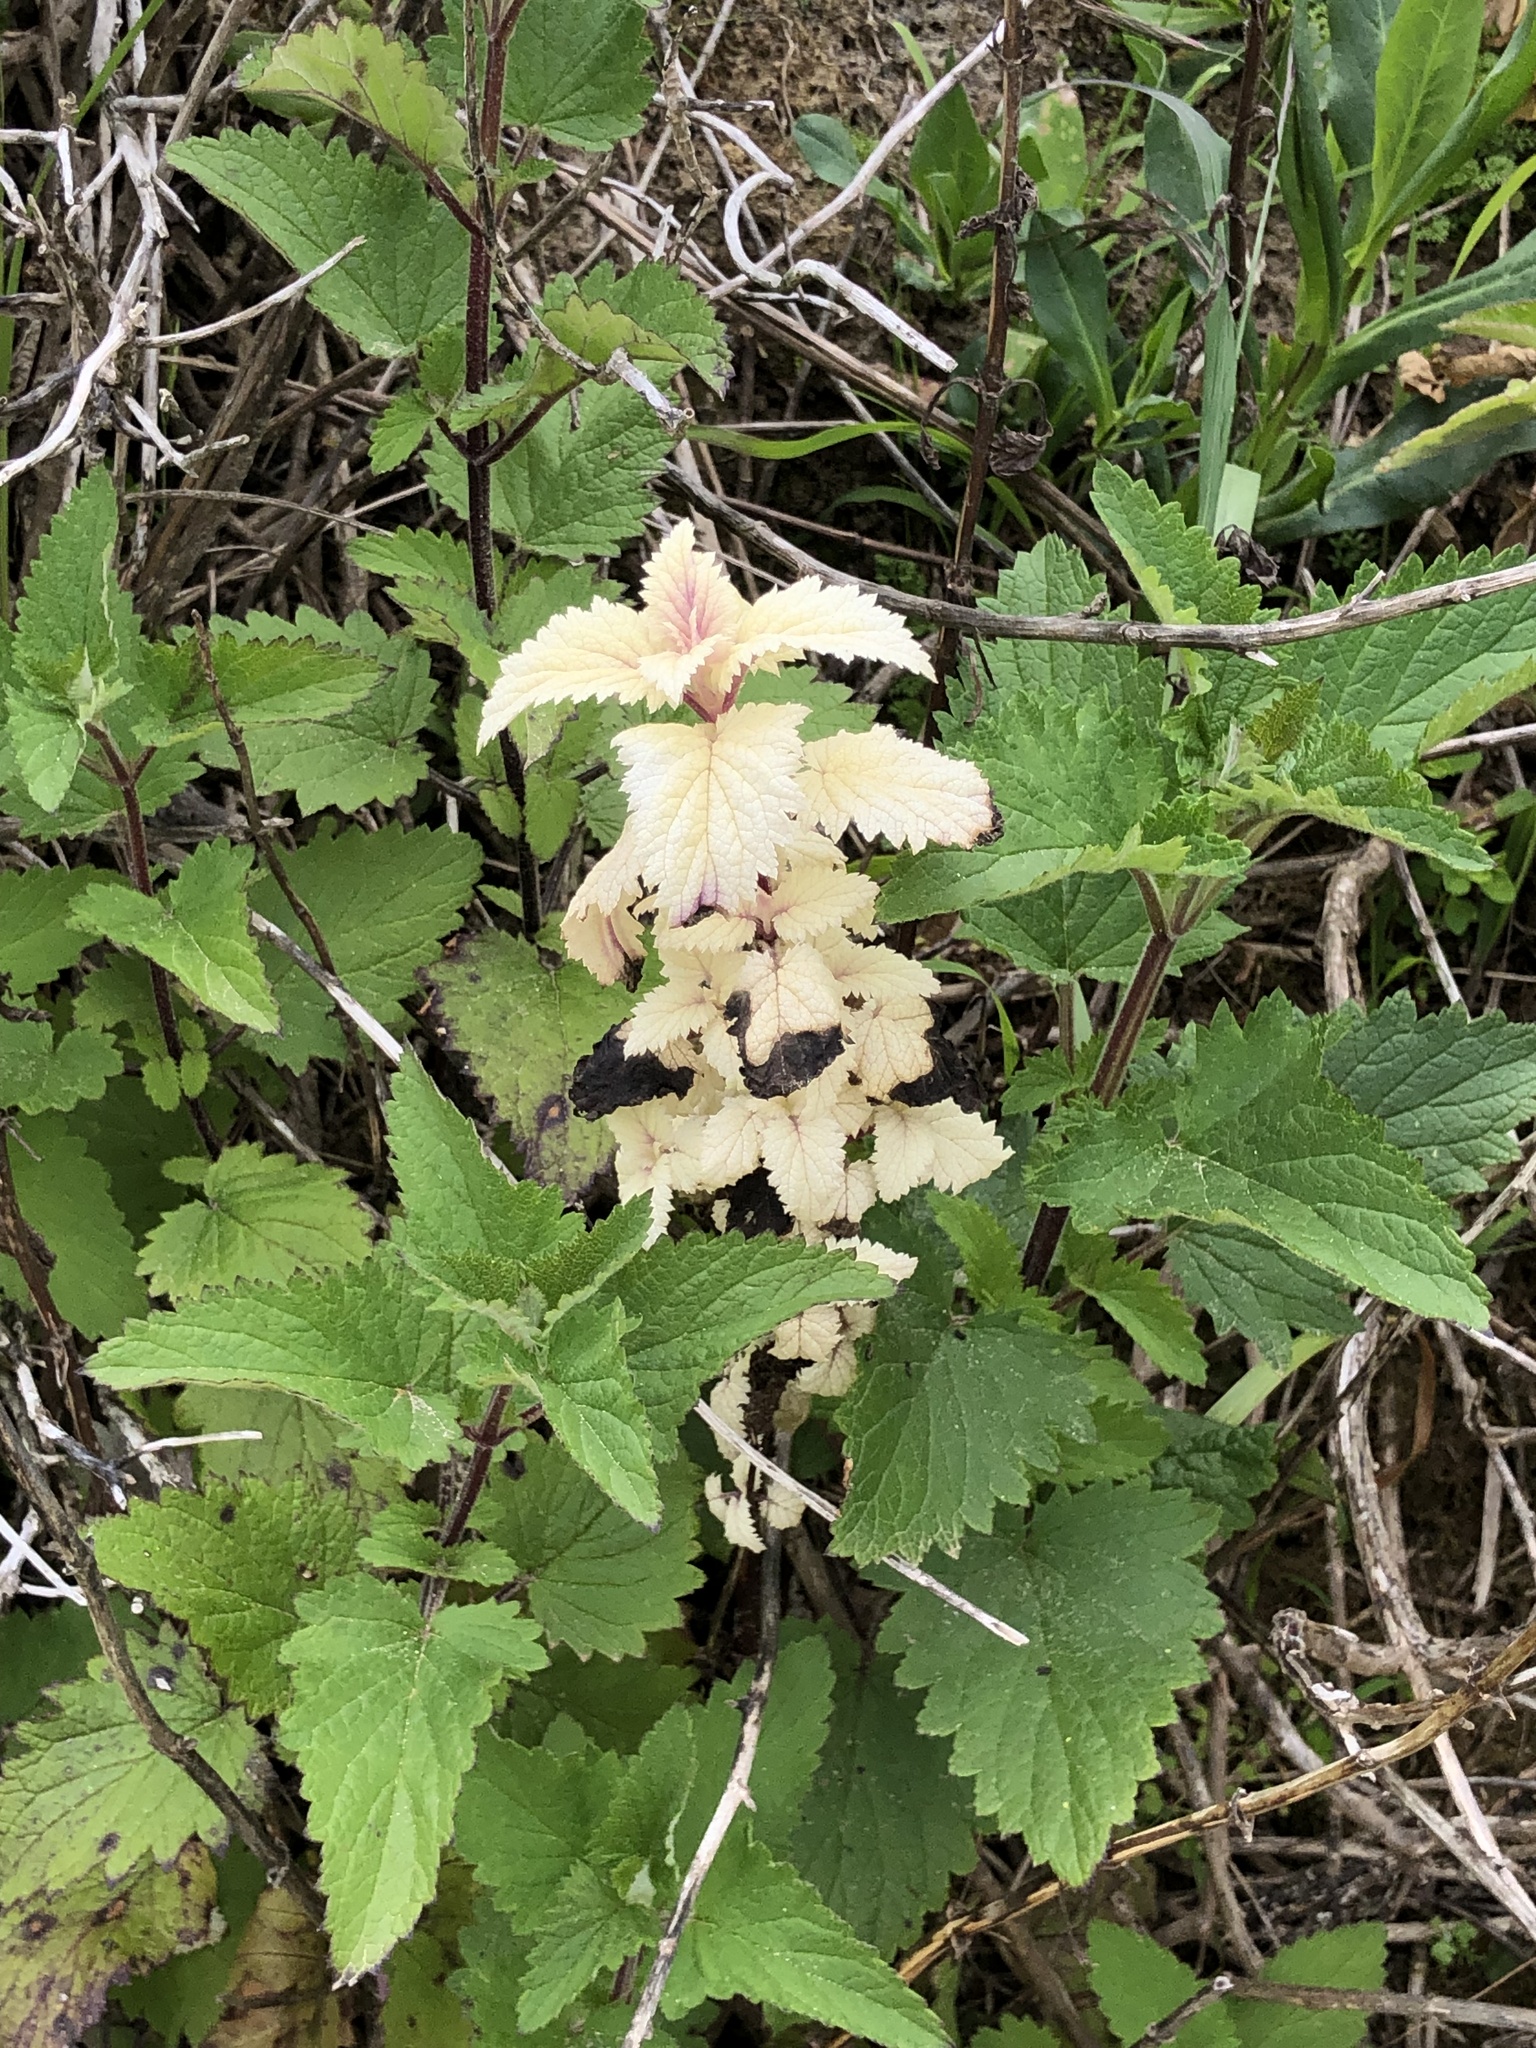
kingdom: Plantae
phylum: Tracheophyta
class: Magnoliopsida
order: Lamiales
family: Scrophulariaceae
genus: Scrophularia
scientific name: Scrophularia californica
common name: California figwort
